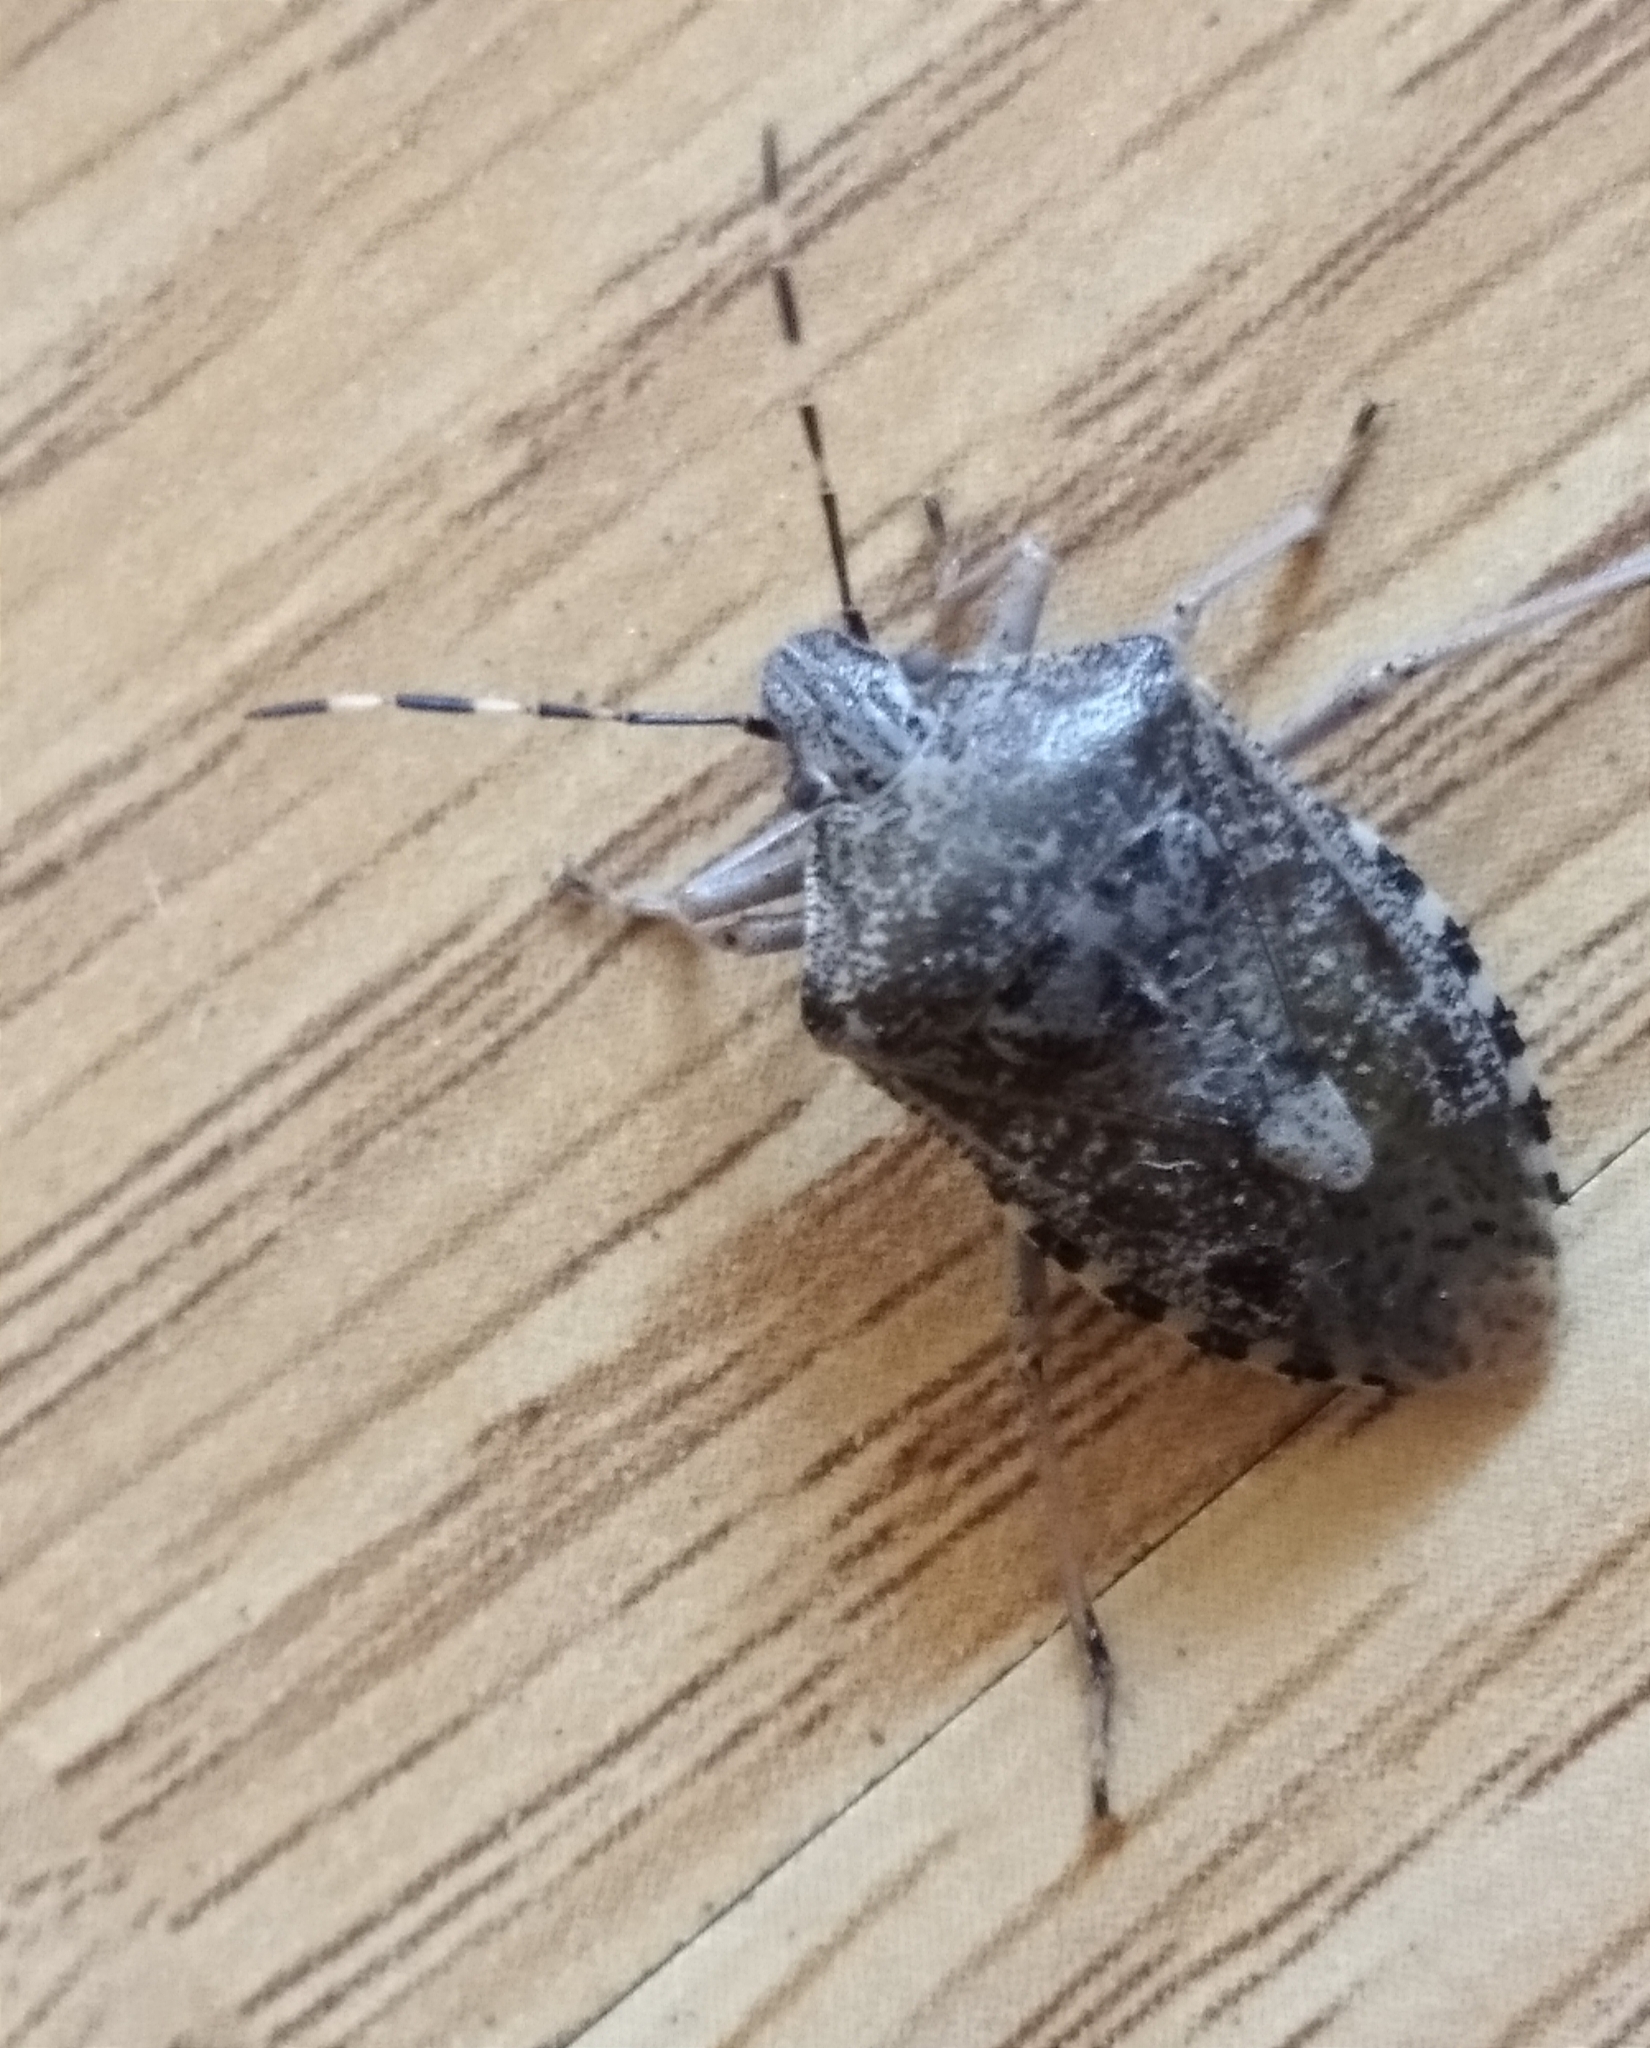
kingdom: Animalia
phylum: Arthropoda
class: Insecta
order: Hemiptera
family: Pentatomidae
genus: Rhaphigaster
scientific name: Rhaphigaster nebulosa
